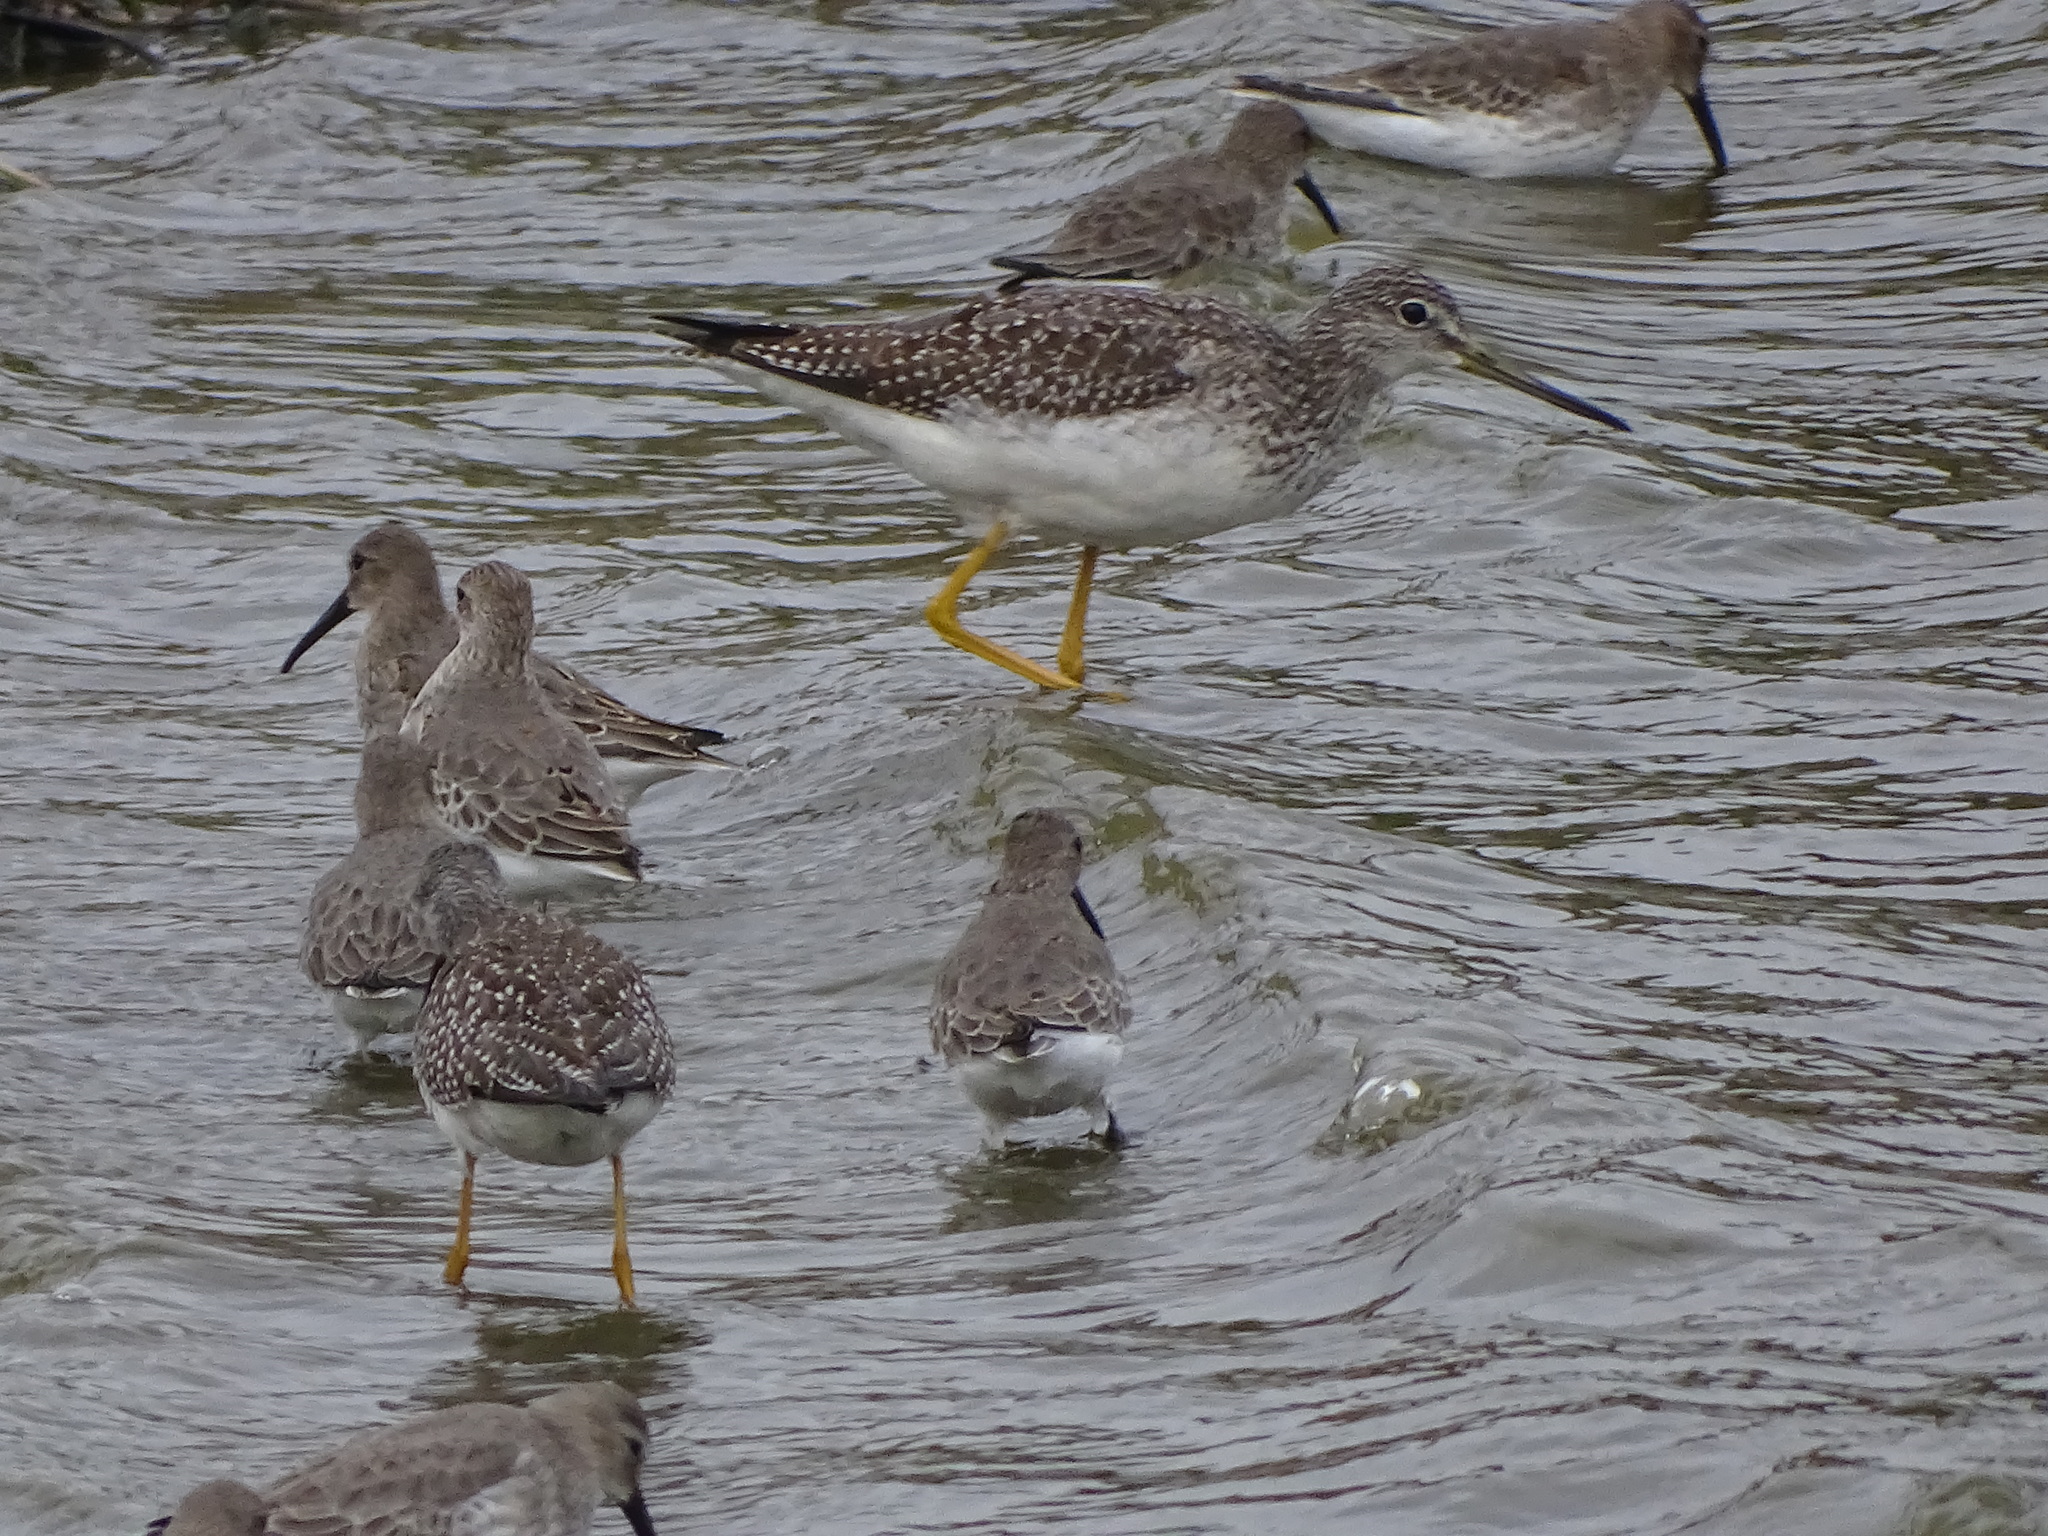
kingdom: Animalia
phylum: Chordata
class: Aves
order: Charadriiformes
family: Scolopacidae
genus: Tringa
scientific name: Tringa melanoleuca
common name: Greater yellowlegs
